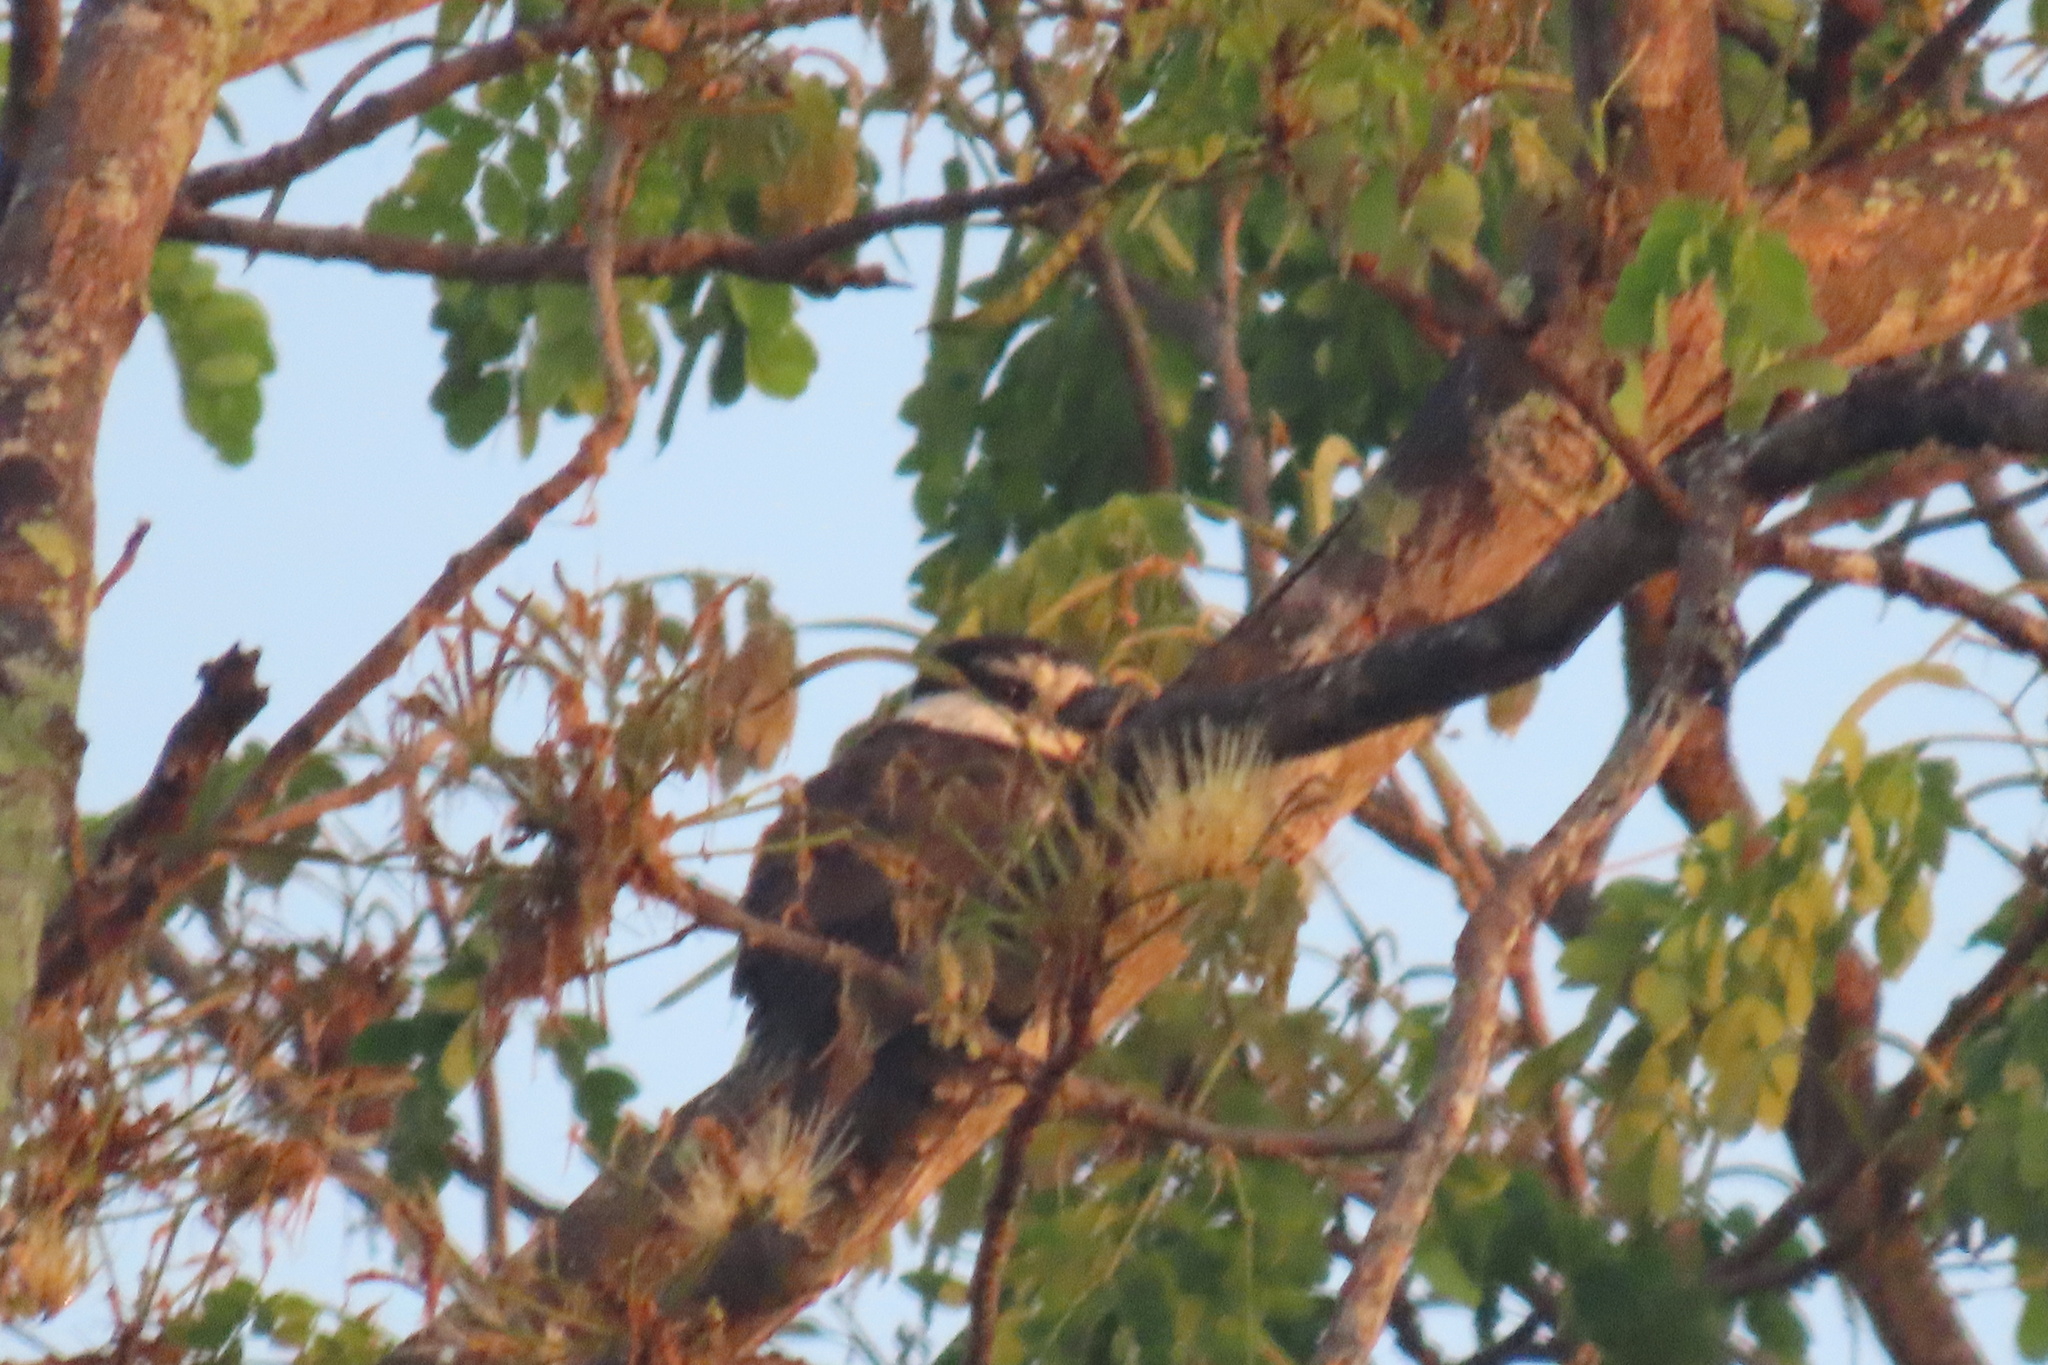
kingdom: Animalia
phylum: Chordata
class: Aves
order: Piciformes
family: Bucconidae
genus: Notharchus
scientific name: Notharchus hyperrhynchus
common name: White-necked puffbird
